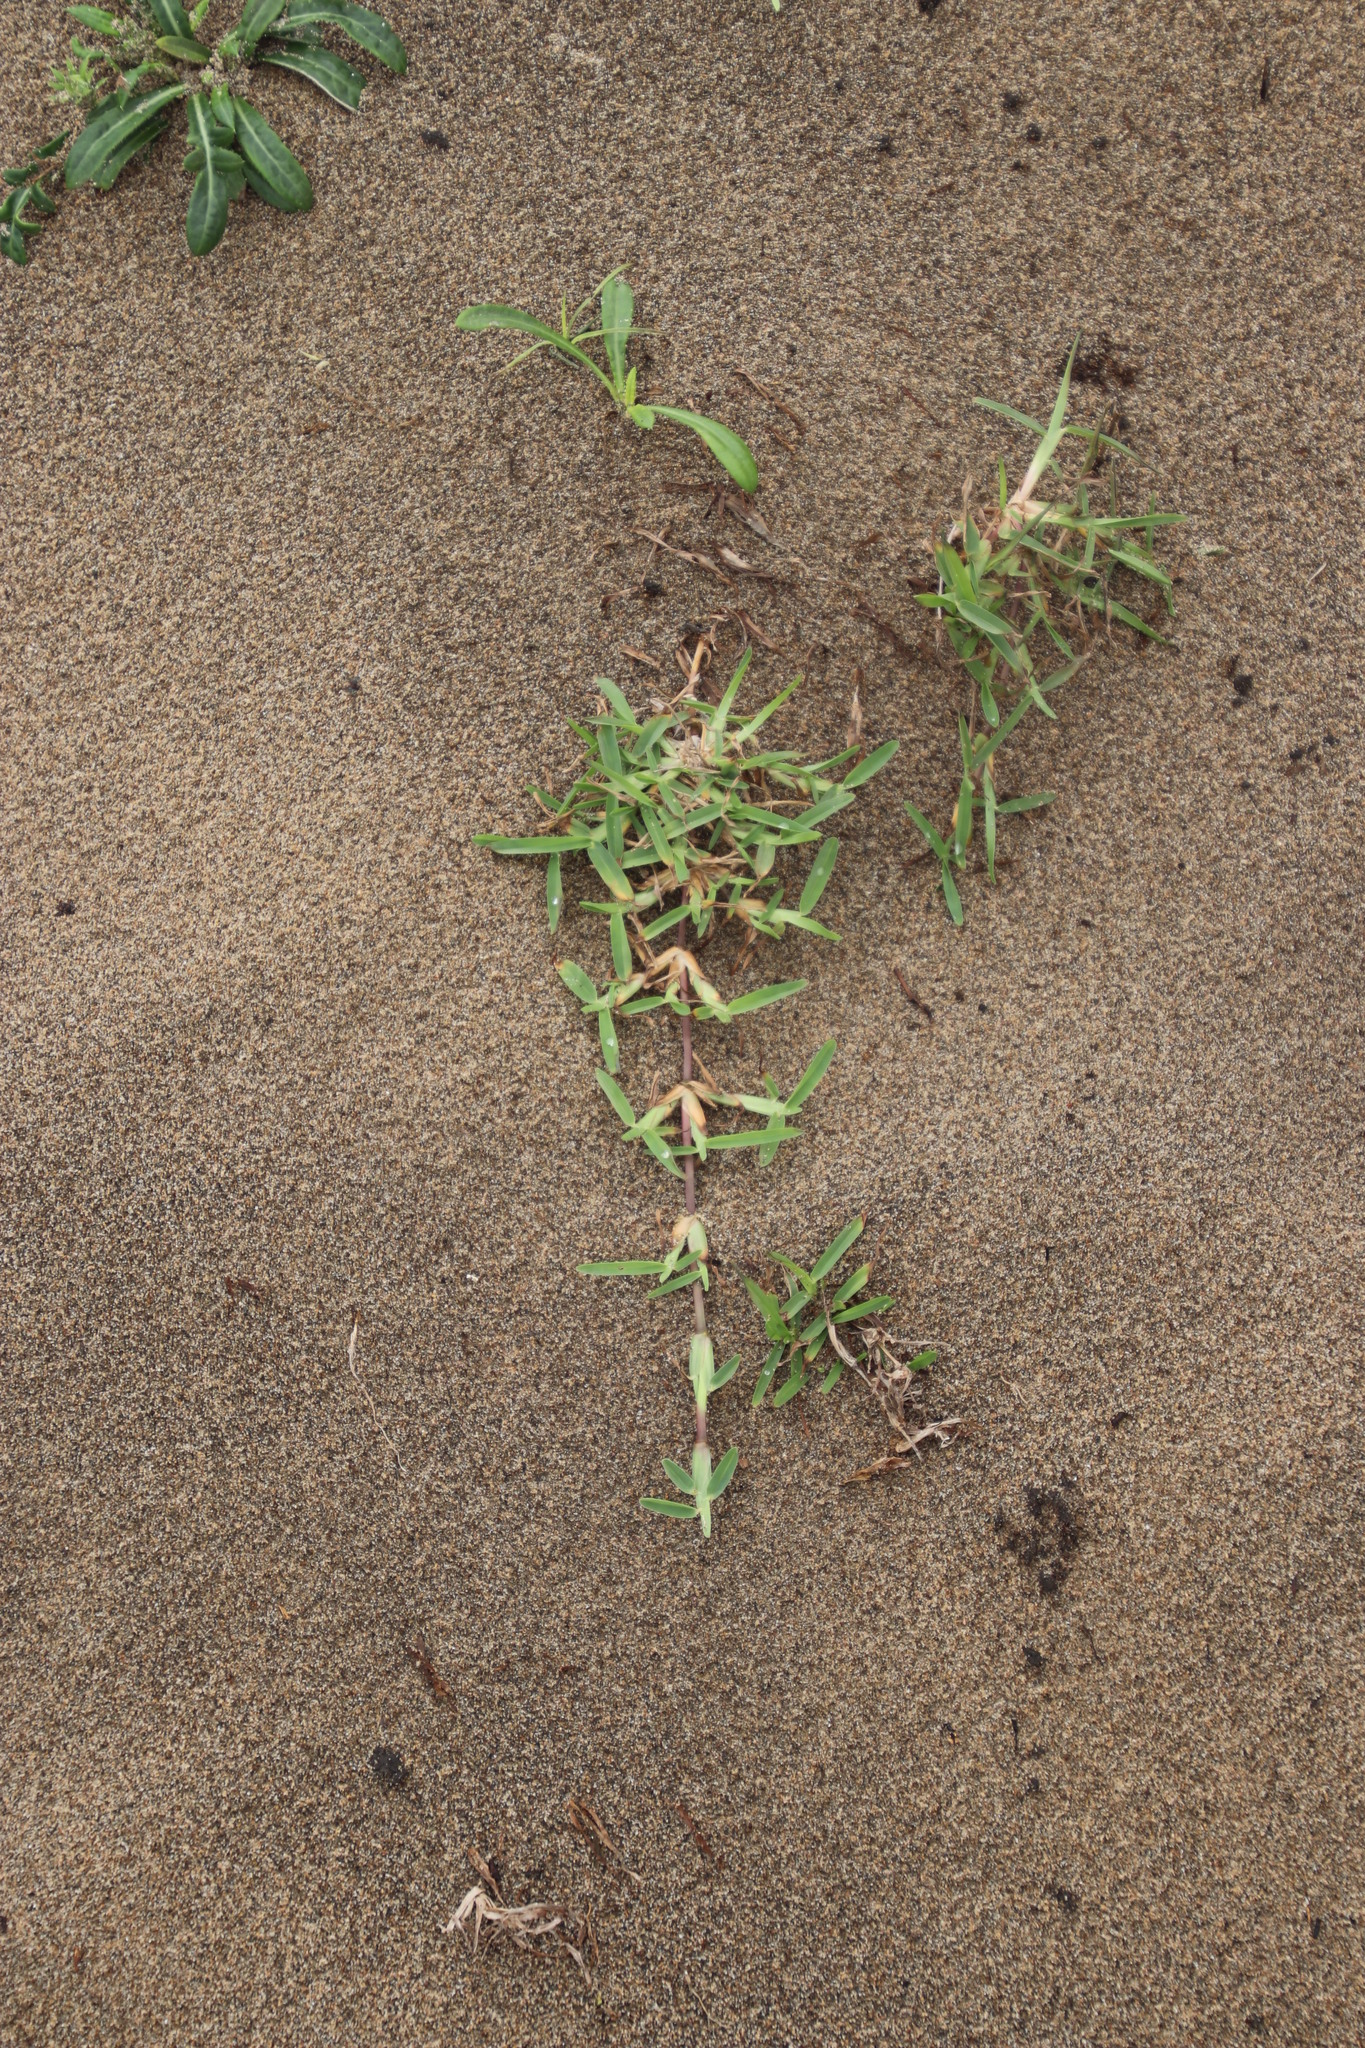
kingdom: Plantae
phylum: Tracheophyta
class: Liliopsida
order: Poales
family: Poaceae
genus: Stenotaphrum
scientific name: Stenotaphrum secundatum
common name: St. augustine grass
